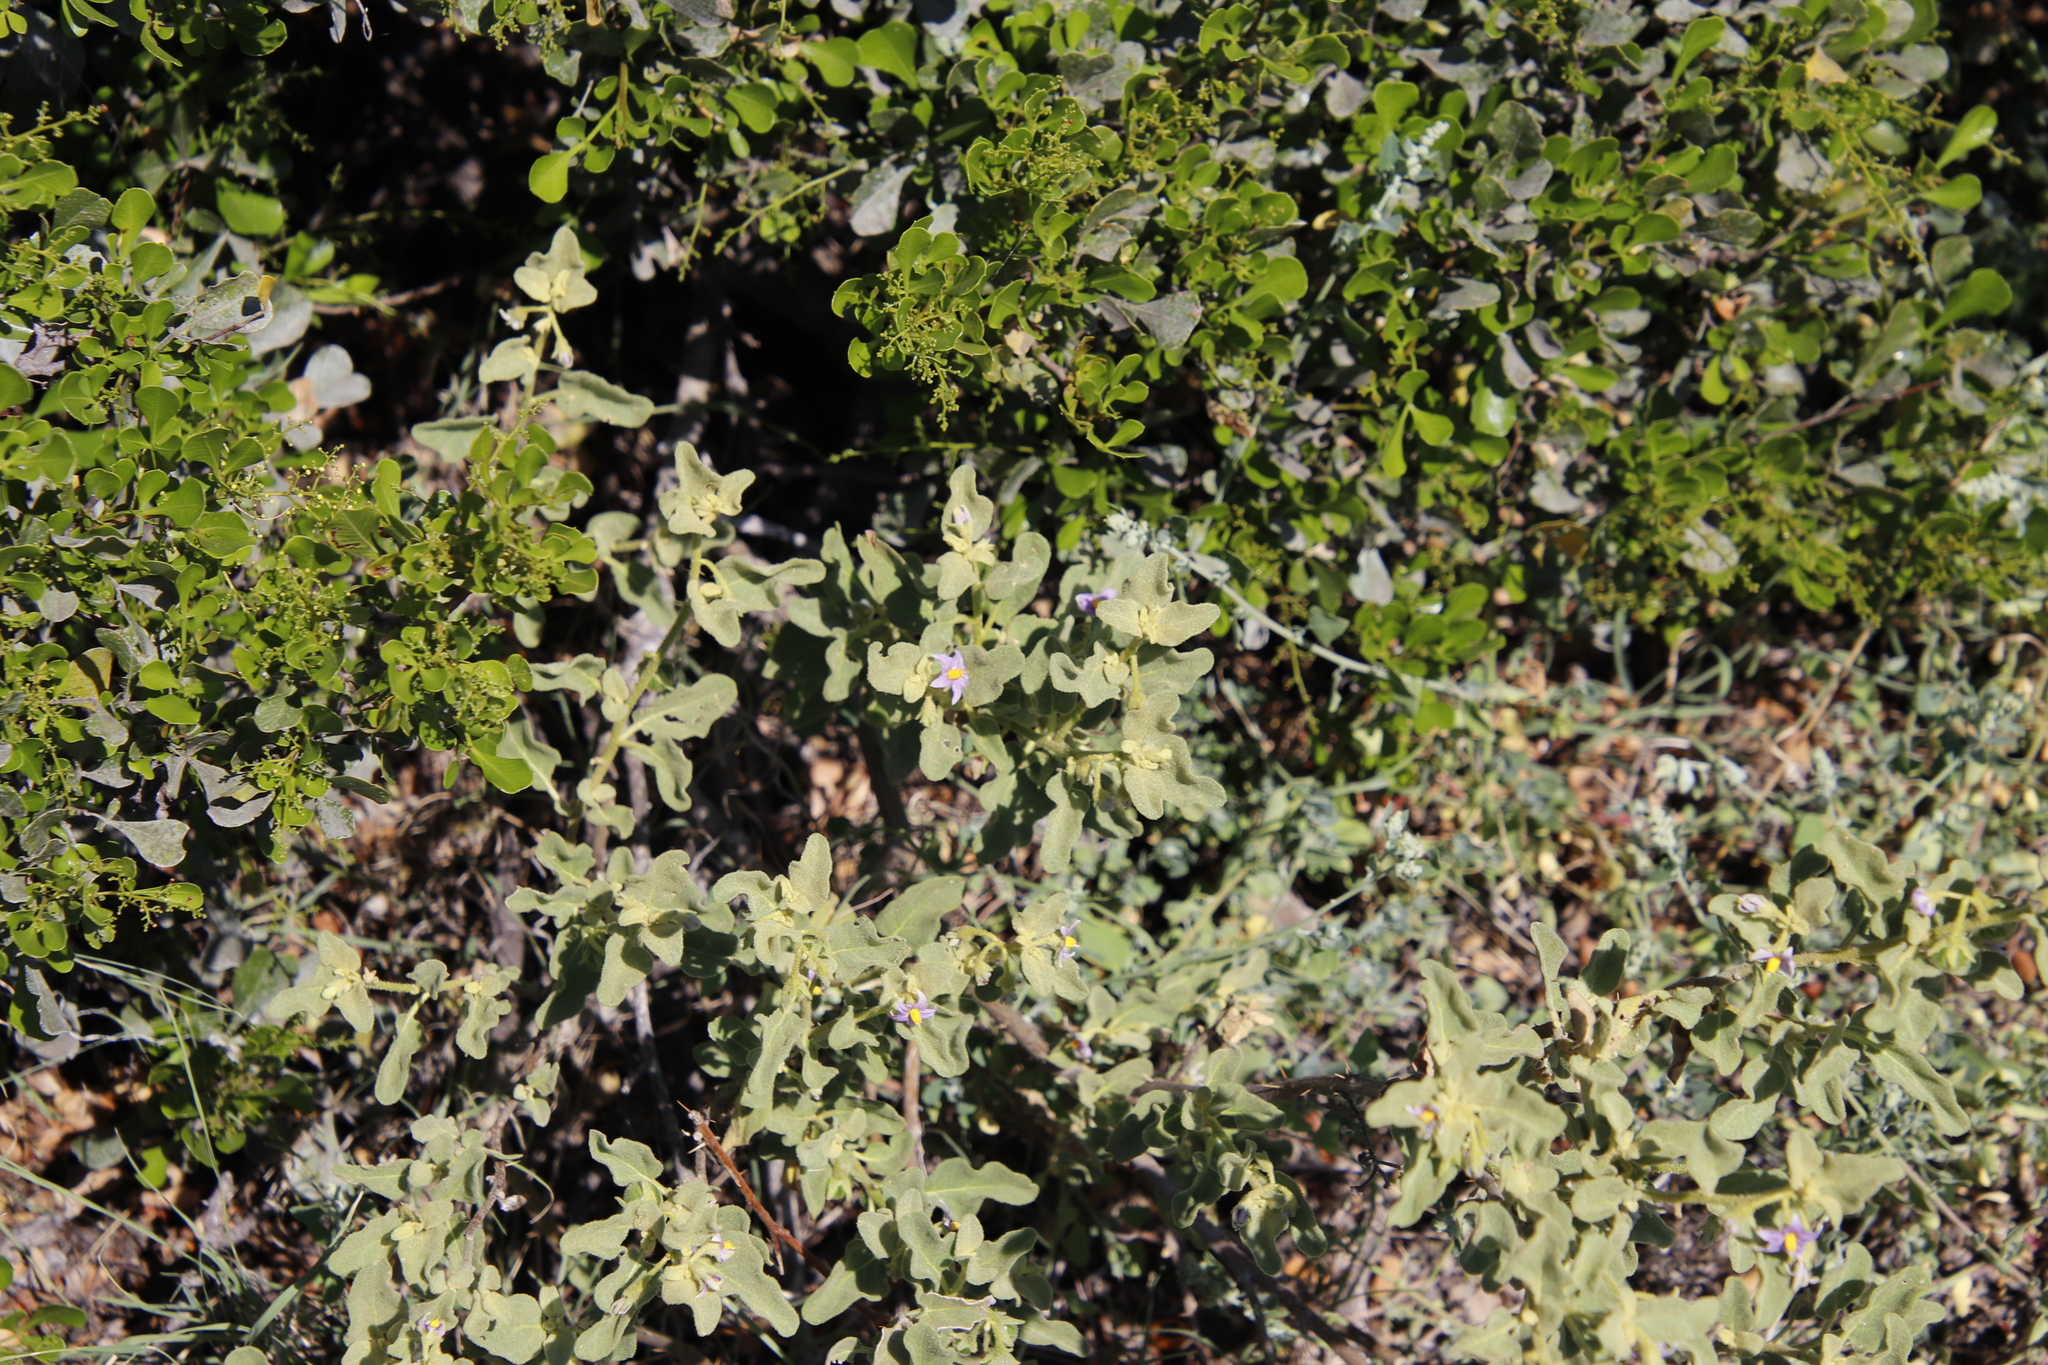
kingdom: Plantae
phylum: Tracheophyta
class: Magnoliopsida
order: Solanales
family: Solanaceae
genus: Solanum
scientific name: Solanum tomentosum
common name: Wild aubergine
